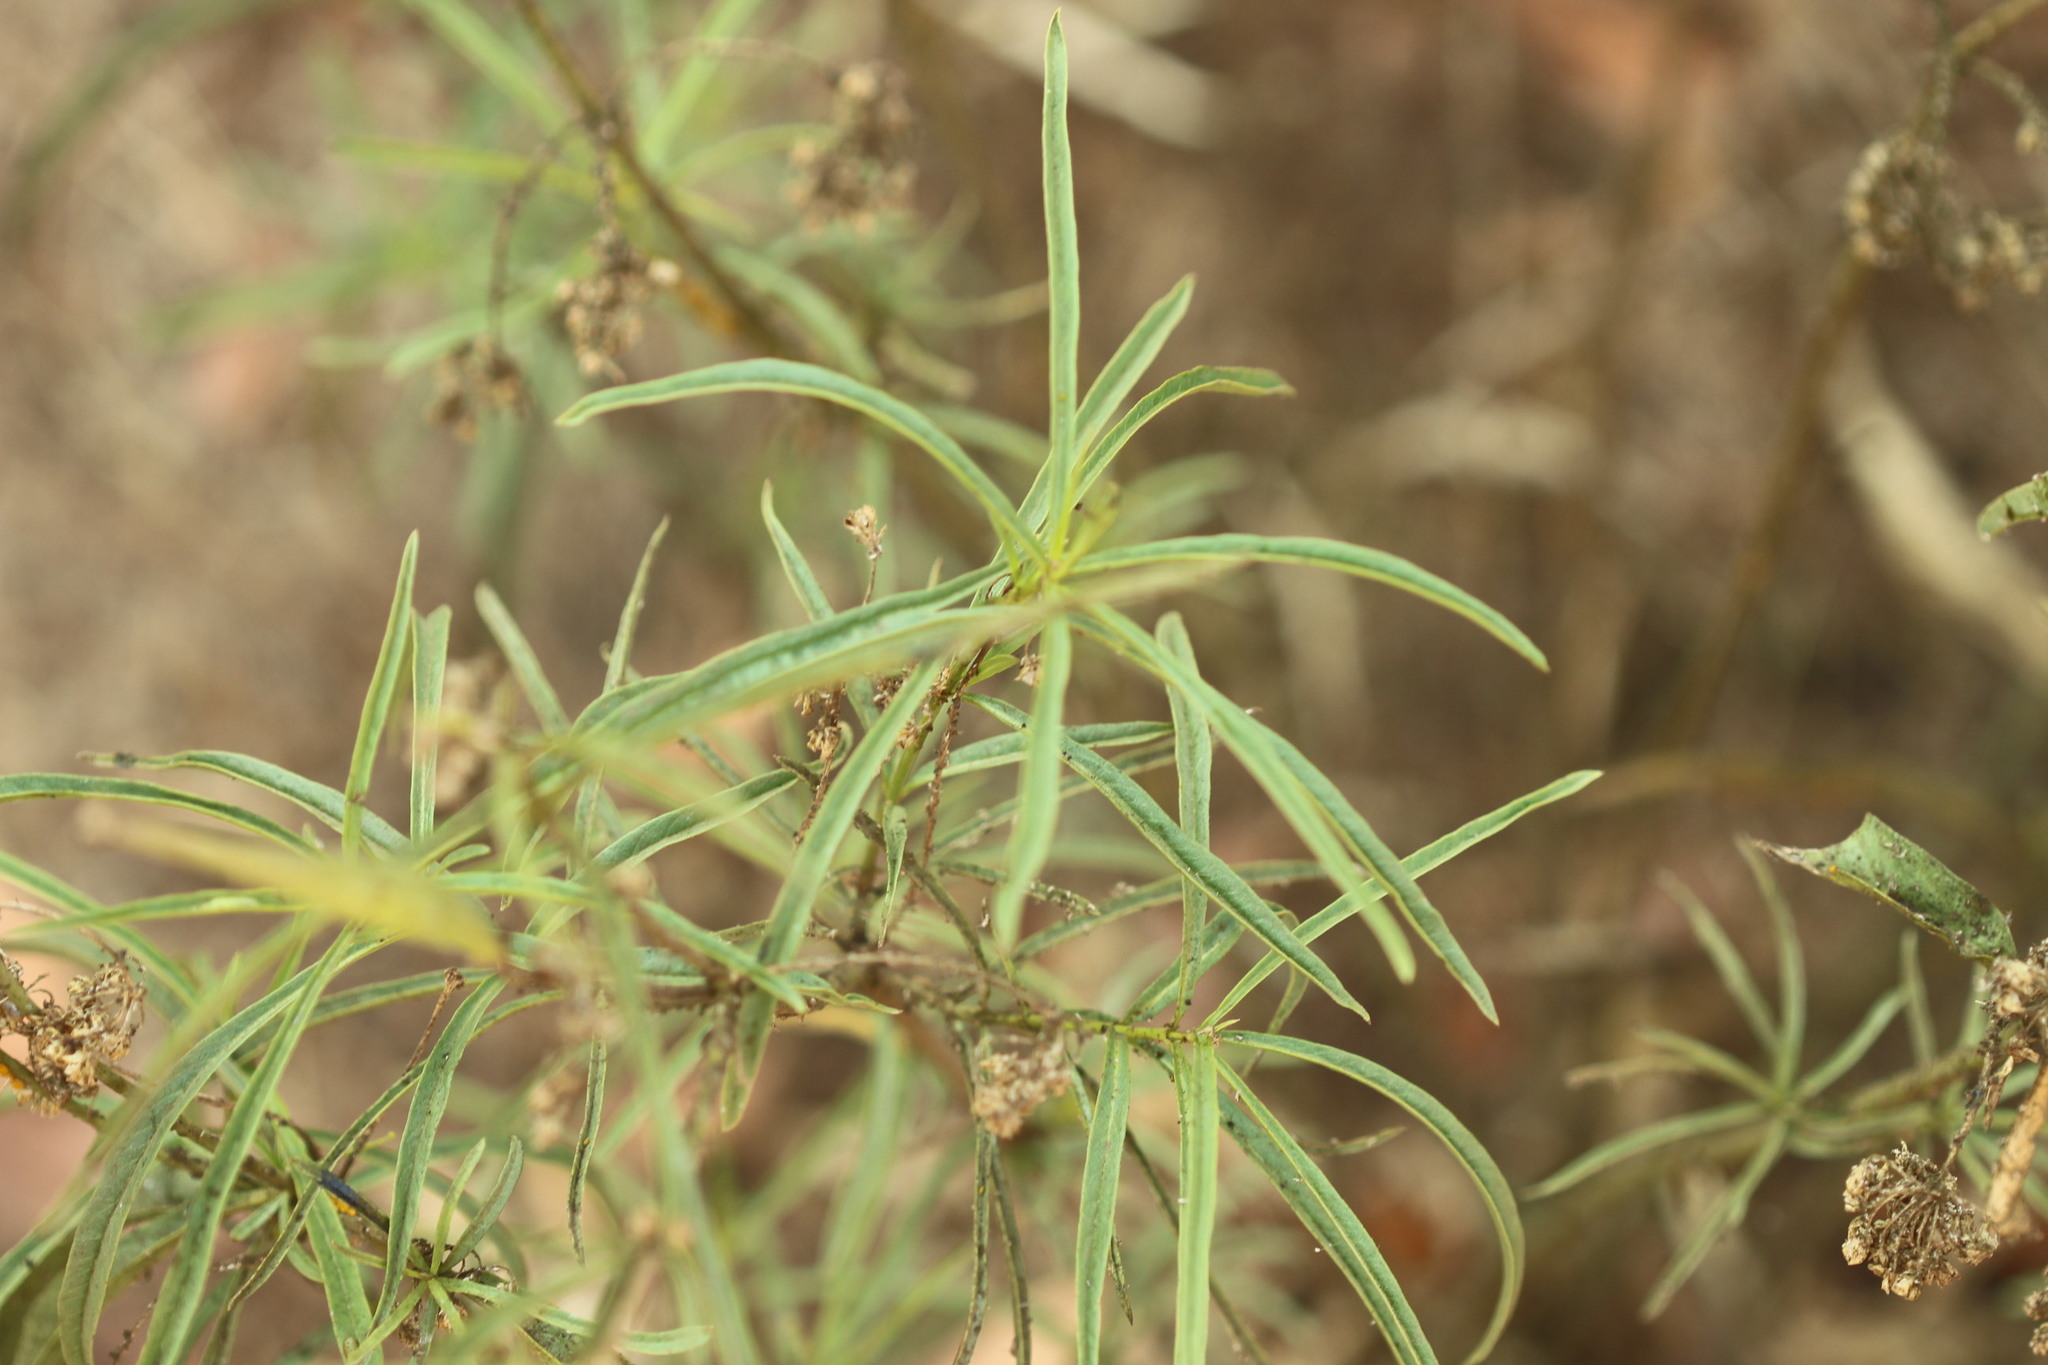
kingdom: Plantae
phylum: Tracheophyta
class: Magnoliopsida
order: Gentianales
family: Apocynaceae
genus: Asclepias
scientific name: Asclepias fascicularis
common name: Mexican milkweed
